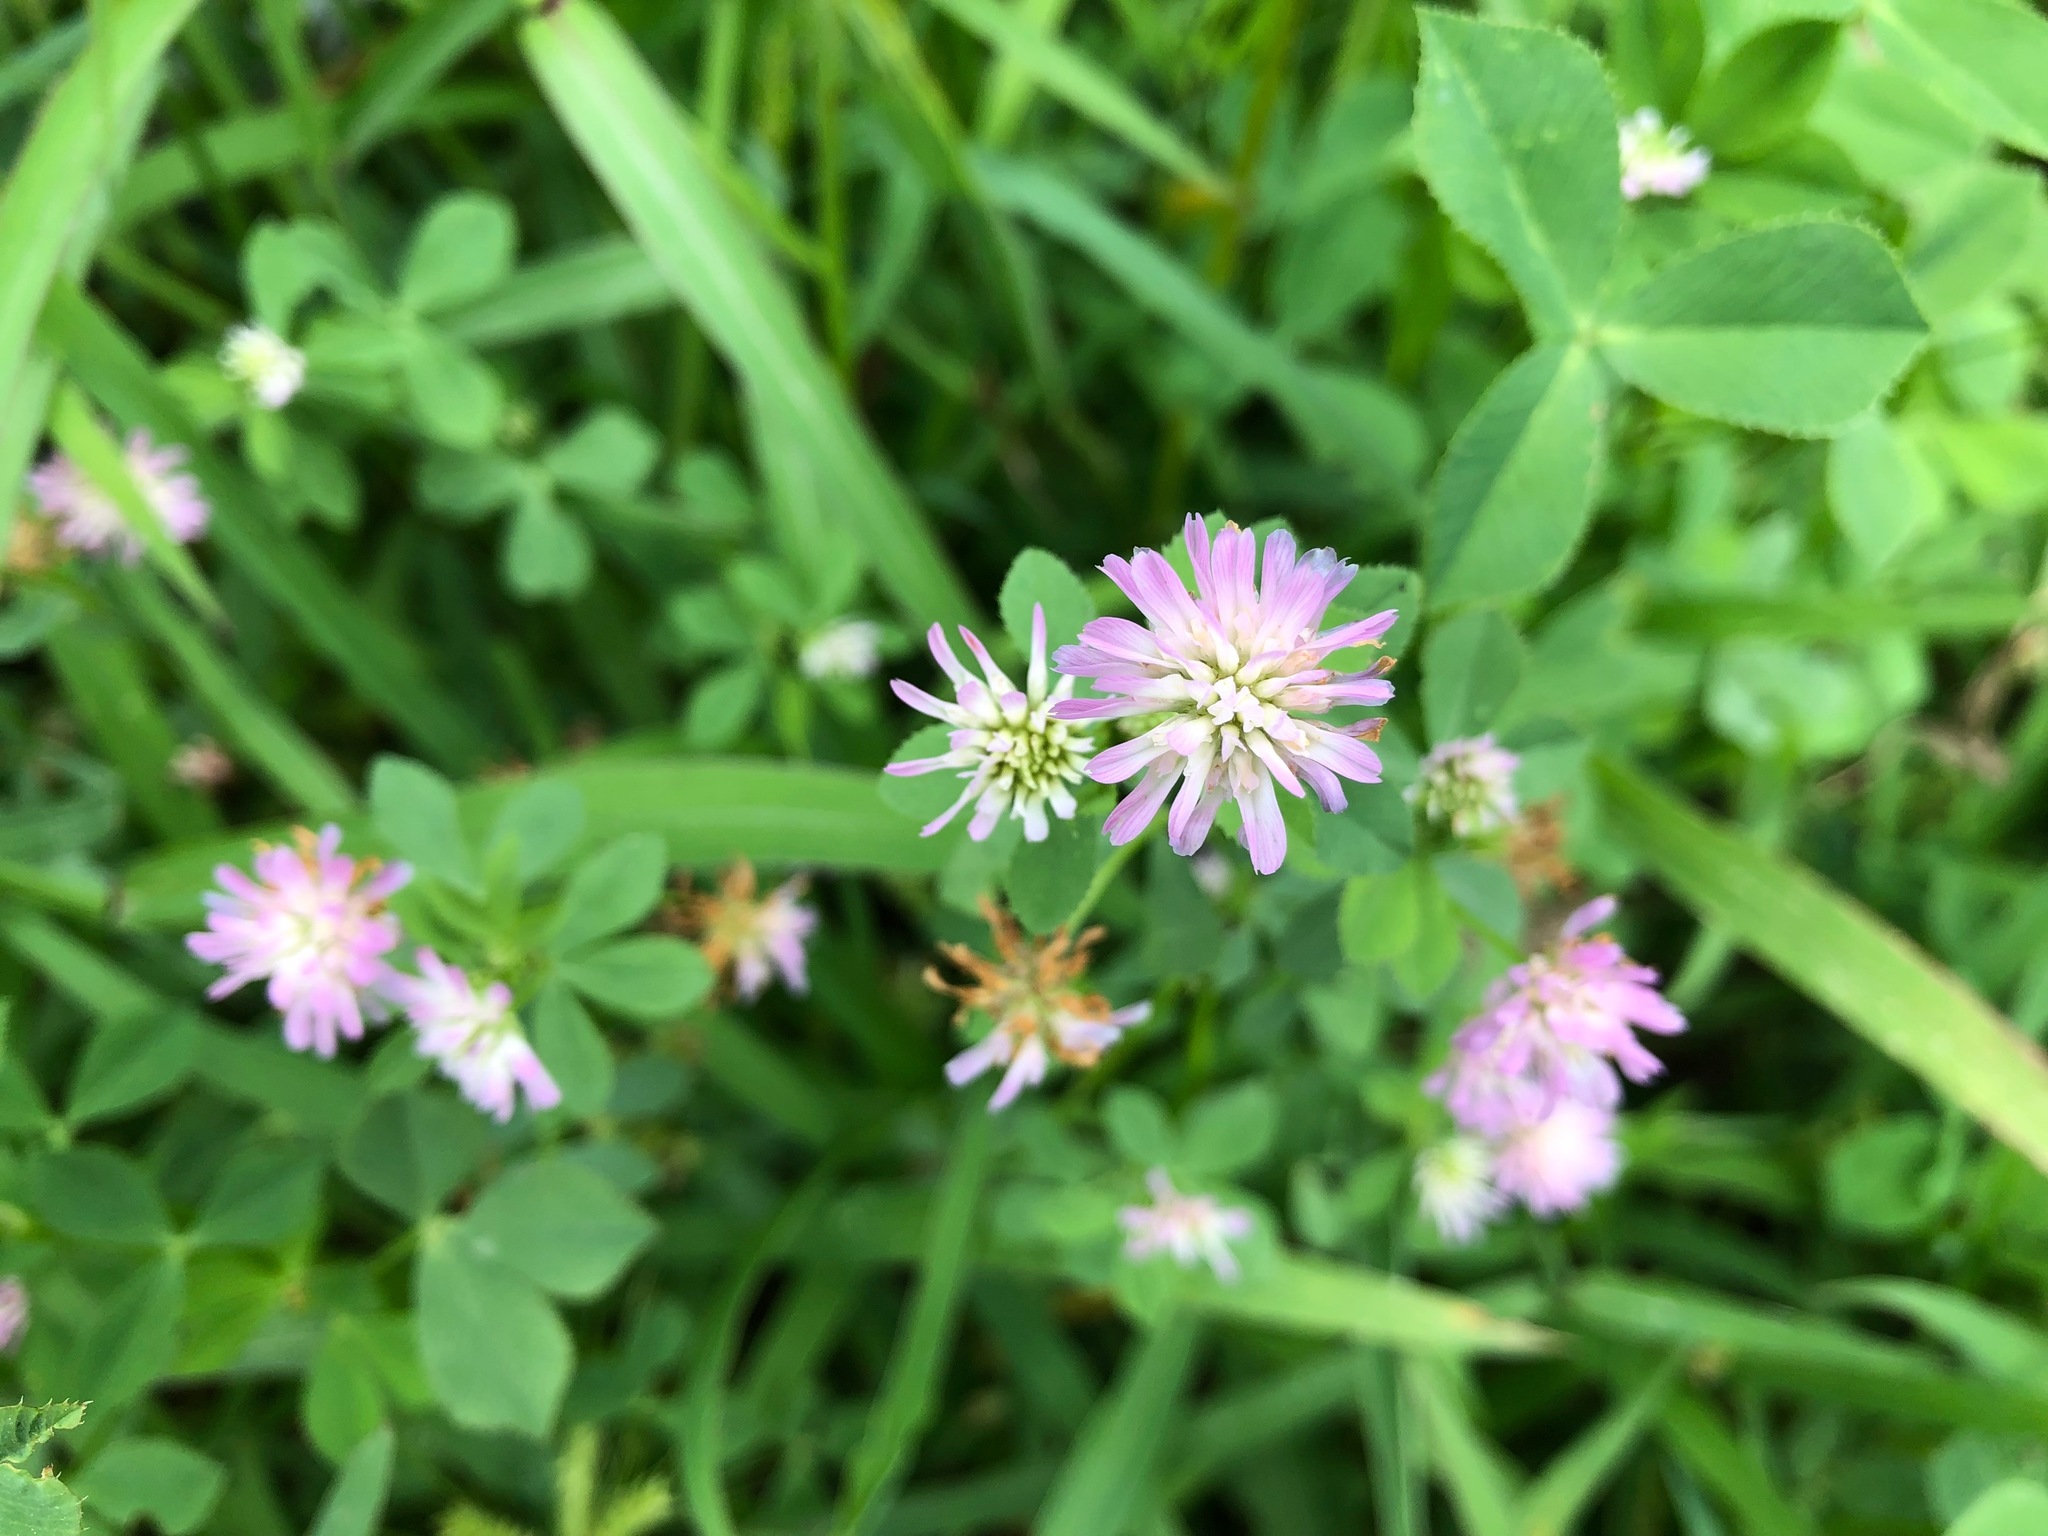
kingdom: Plantae
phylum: Tracheophyta
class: Magnoliopsida
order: Fabales
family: Fabaceae
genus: Trifolium
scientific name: Trifolium resupinatum
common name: Reversed clover
